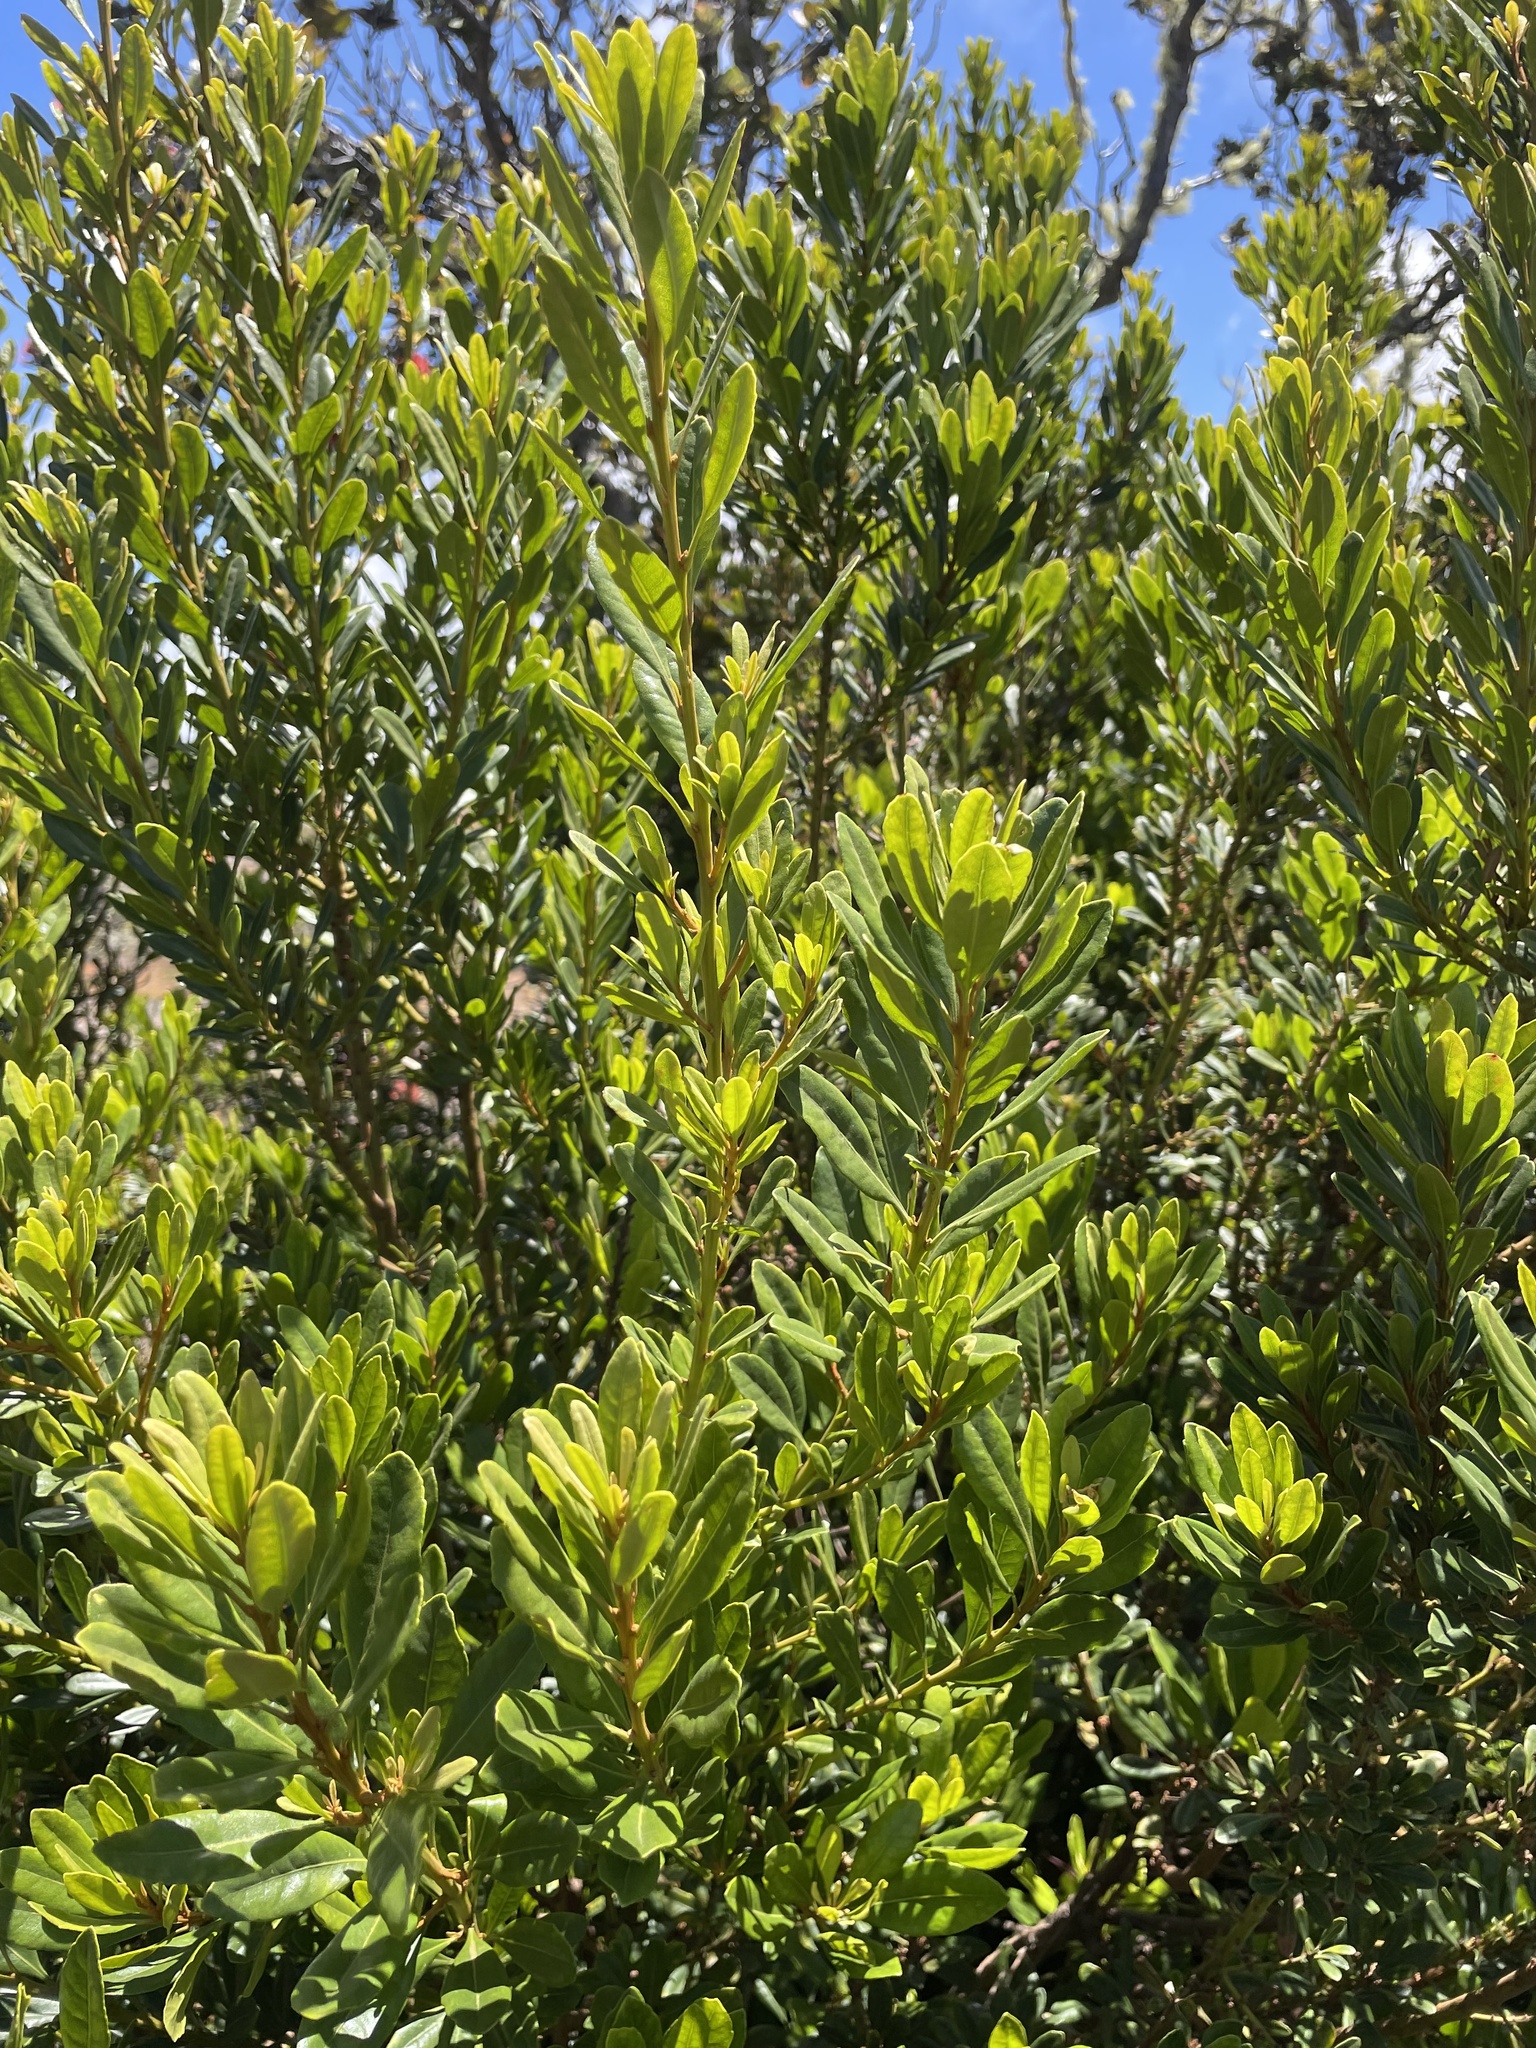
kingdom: Plantae
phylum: Tracheophyta
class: Magnoliopsida
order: Fagales
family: Myricaceae
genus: Morella
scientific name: Morella faya
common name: Firetree
